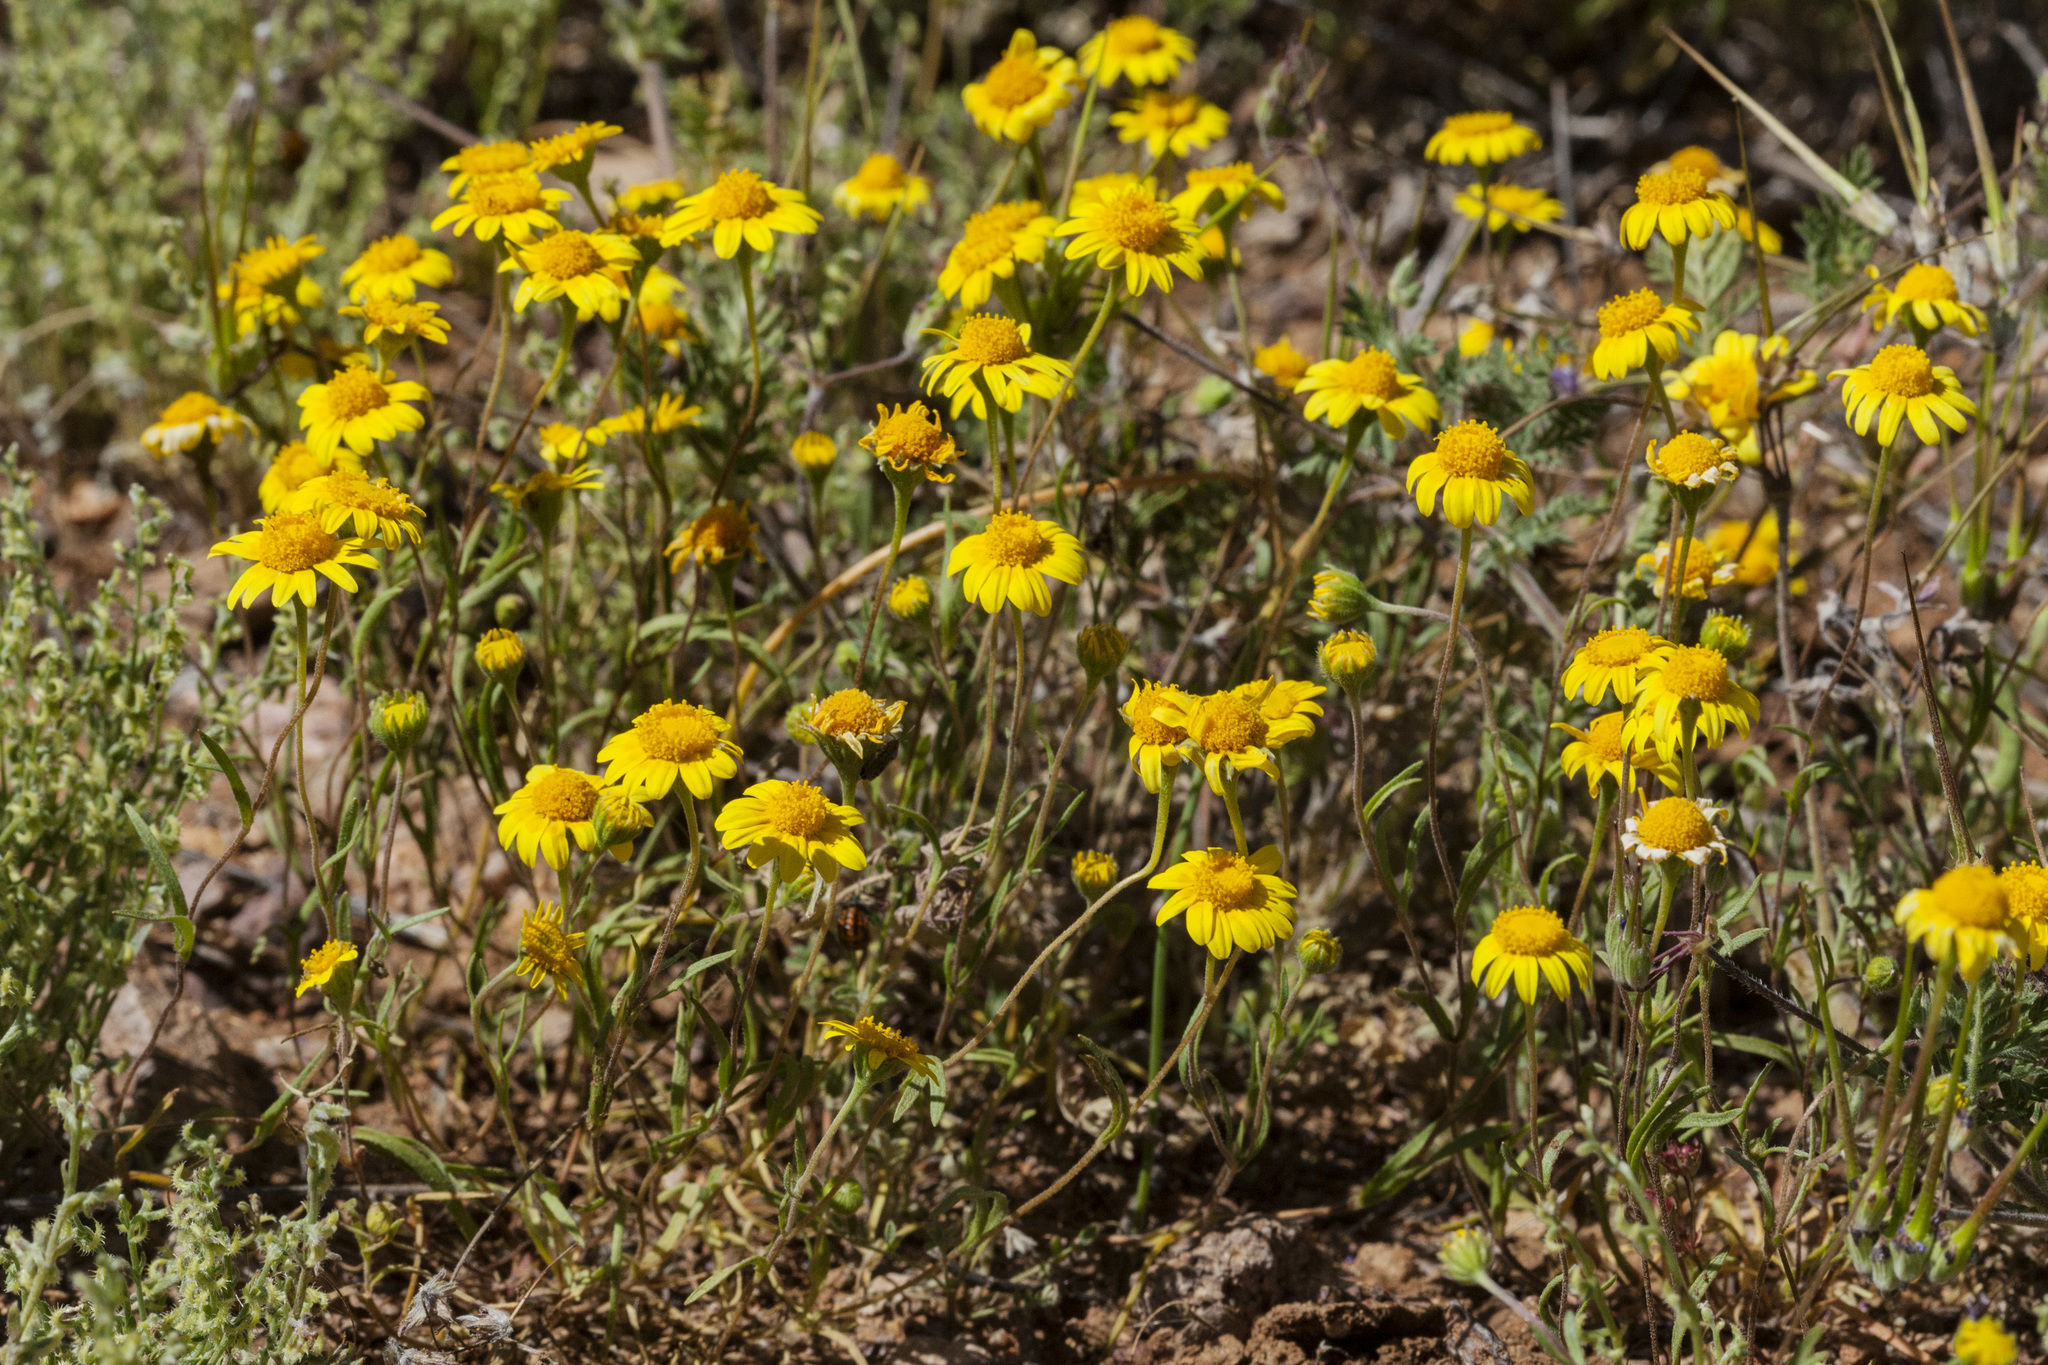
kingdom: Plantae
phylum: Tracheophyta
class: Magnoliopsida
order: Asterales
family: Asteraceae
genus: Lasthenia
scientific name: Lasthenia gracilis
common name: Common goldfields
